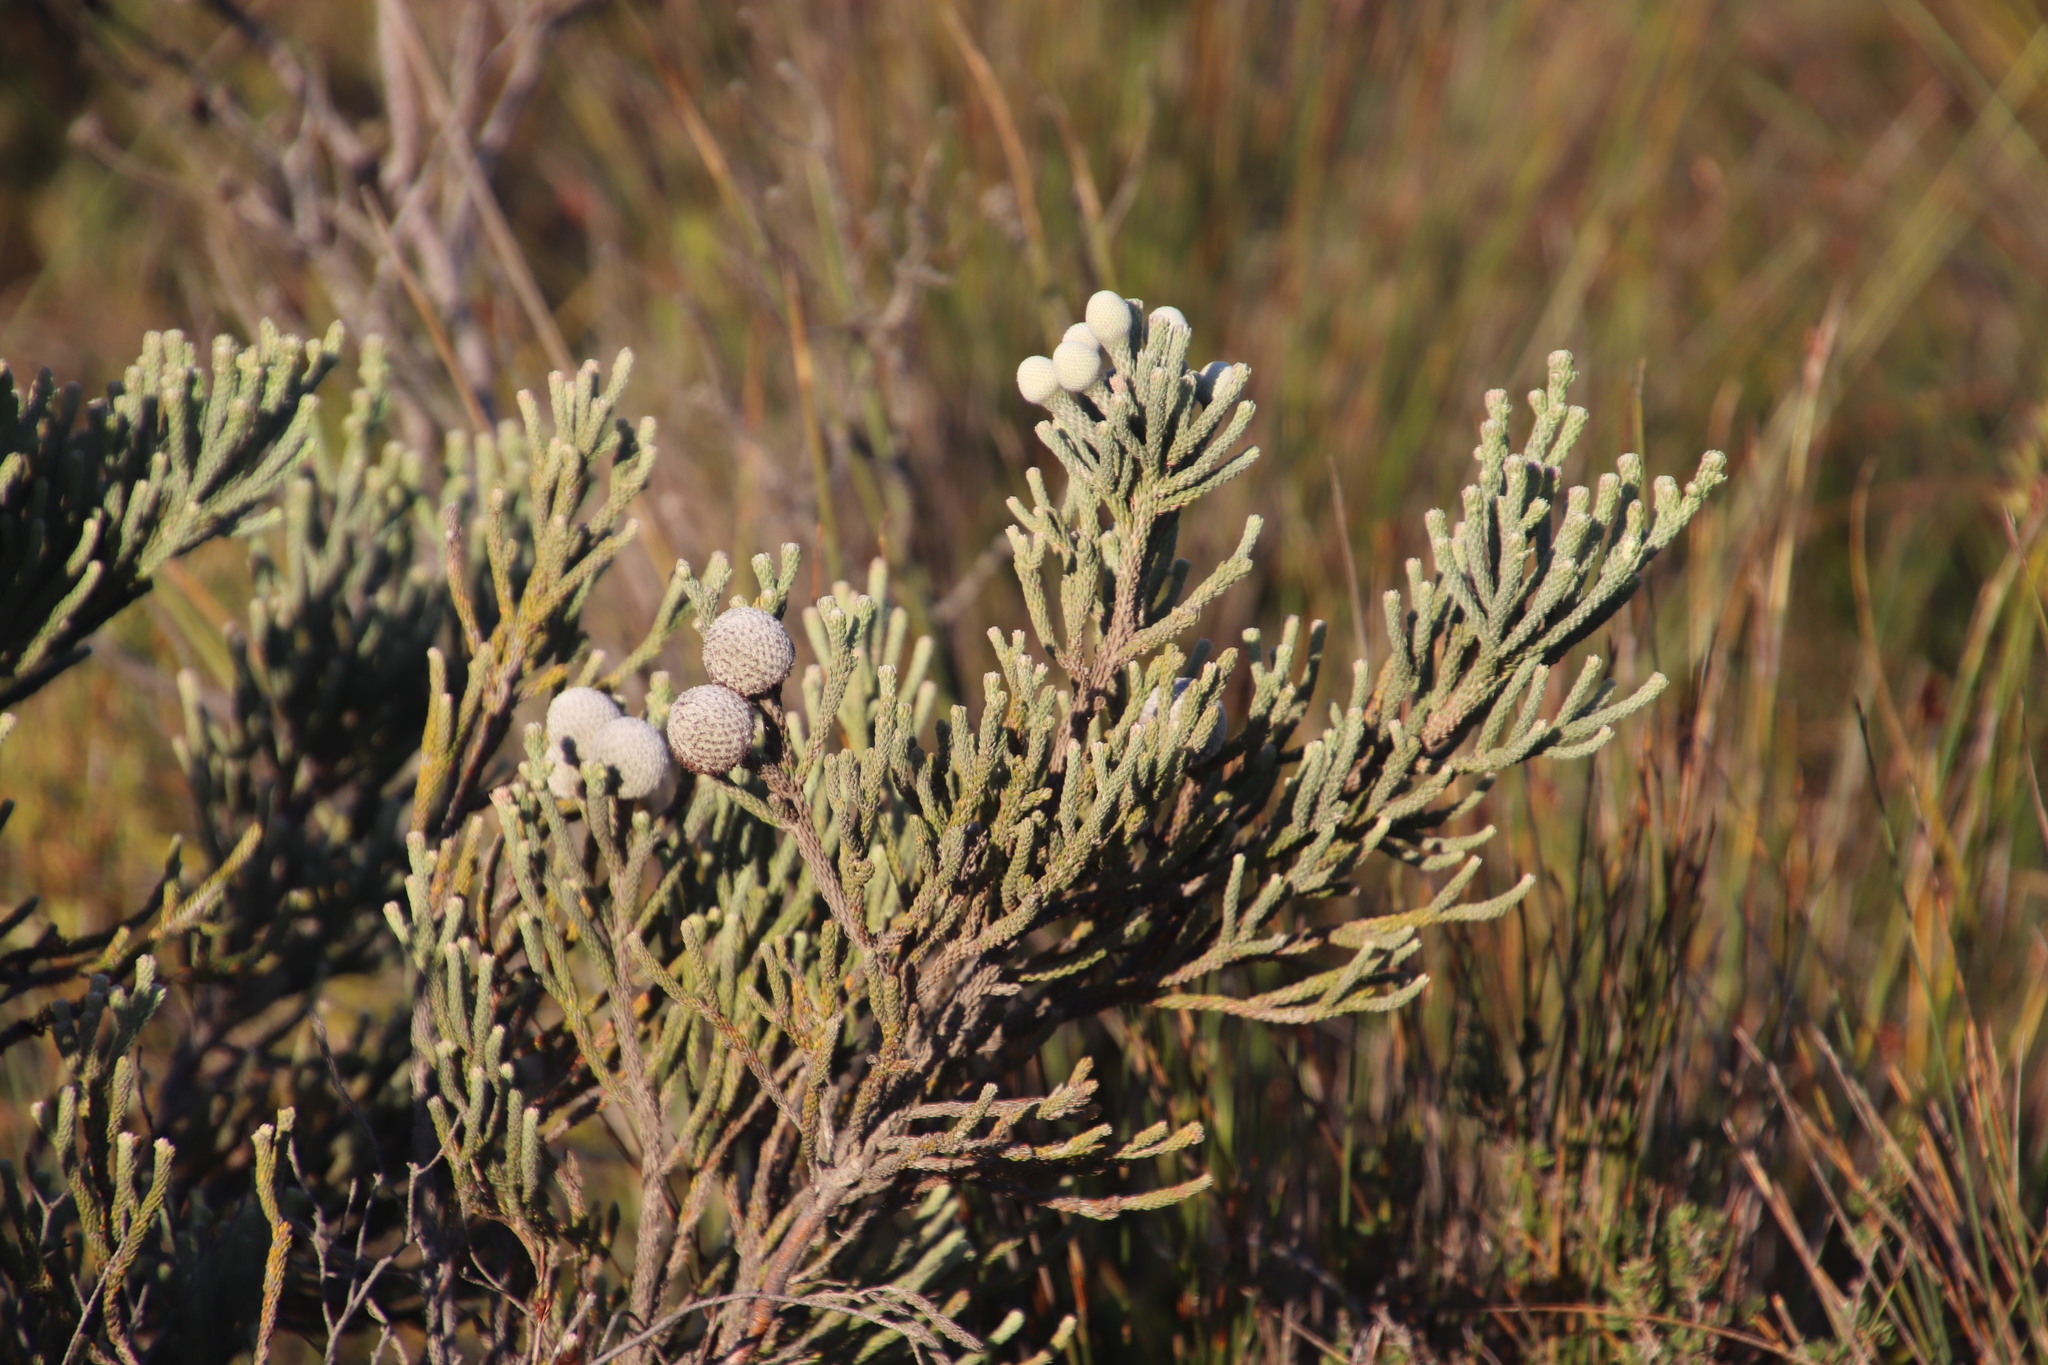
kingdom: Plantae
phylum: Tracheophyta
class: Magnoliopsida
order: Bruniales
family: Bruniaceae
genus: Brunia
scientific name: Brunia laevis
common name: Silver brunia
